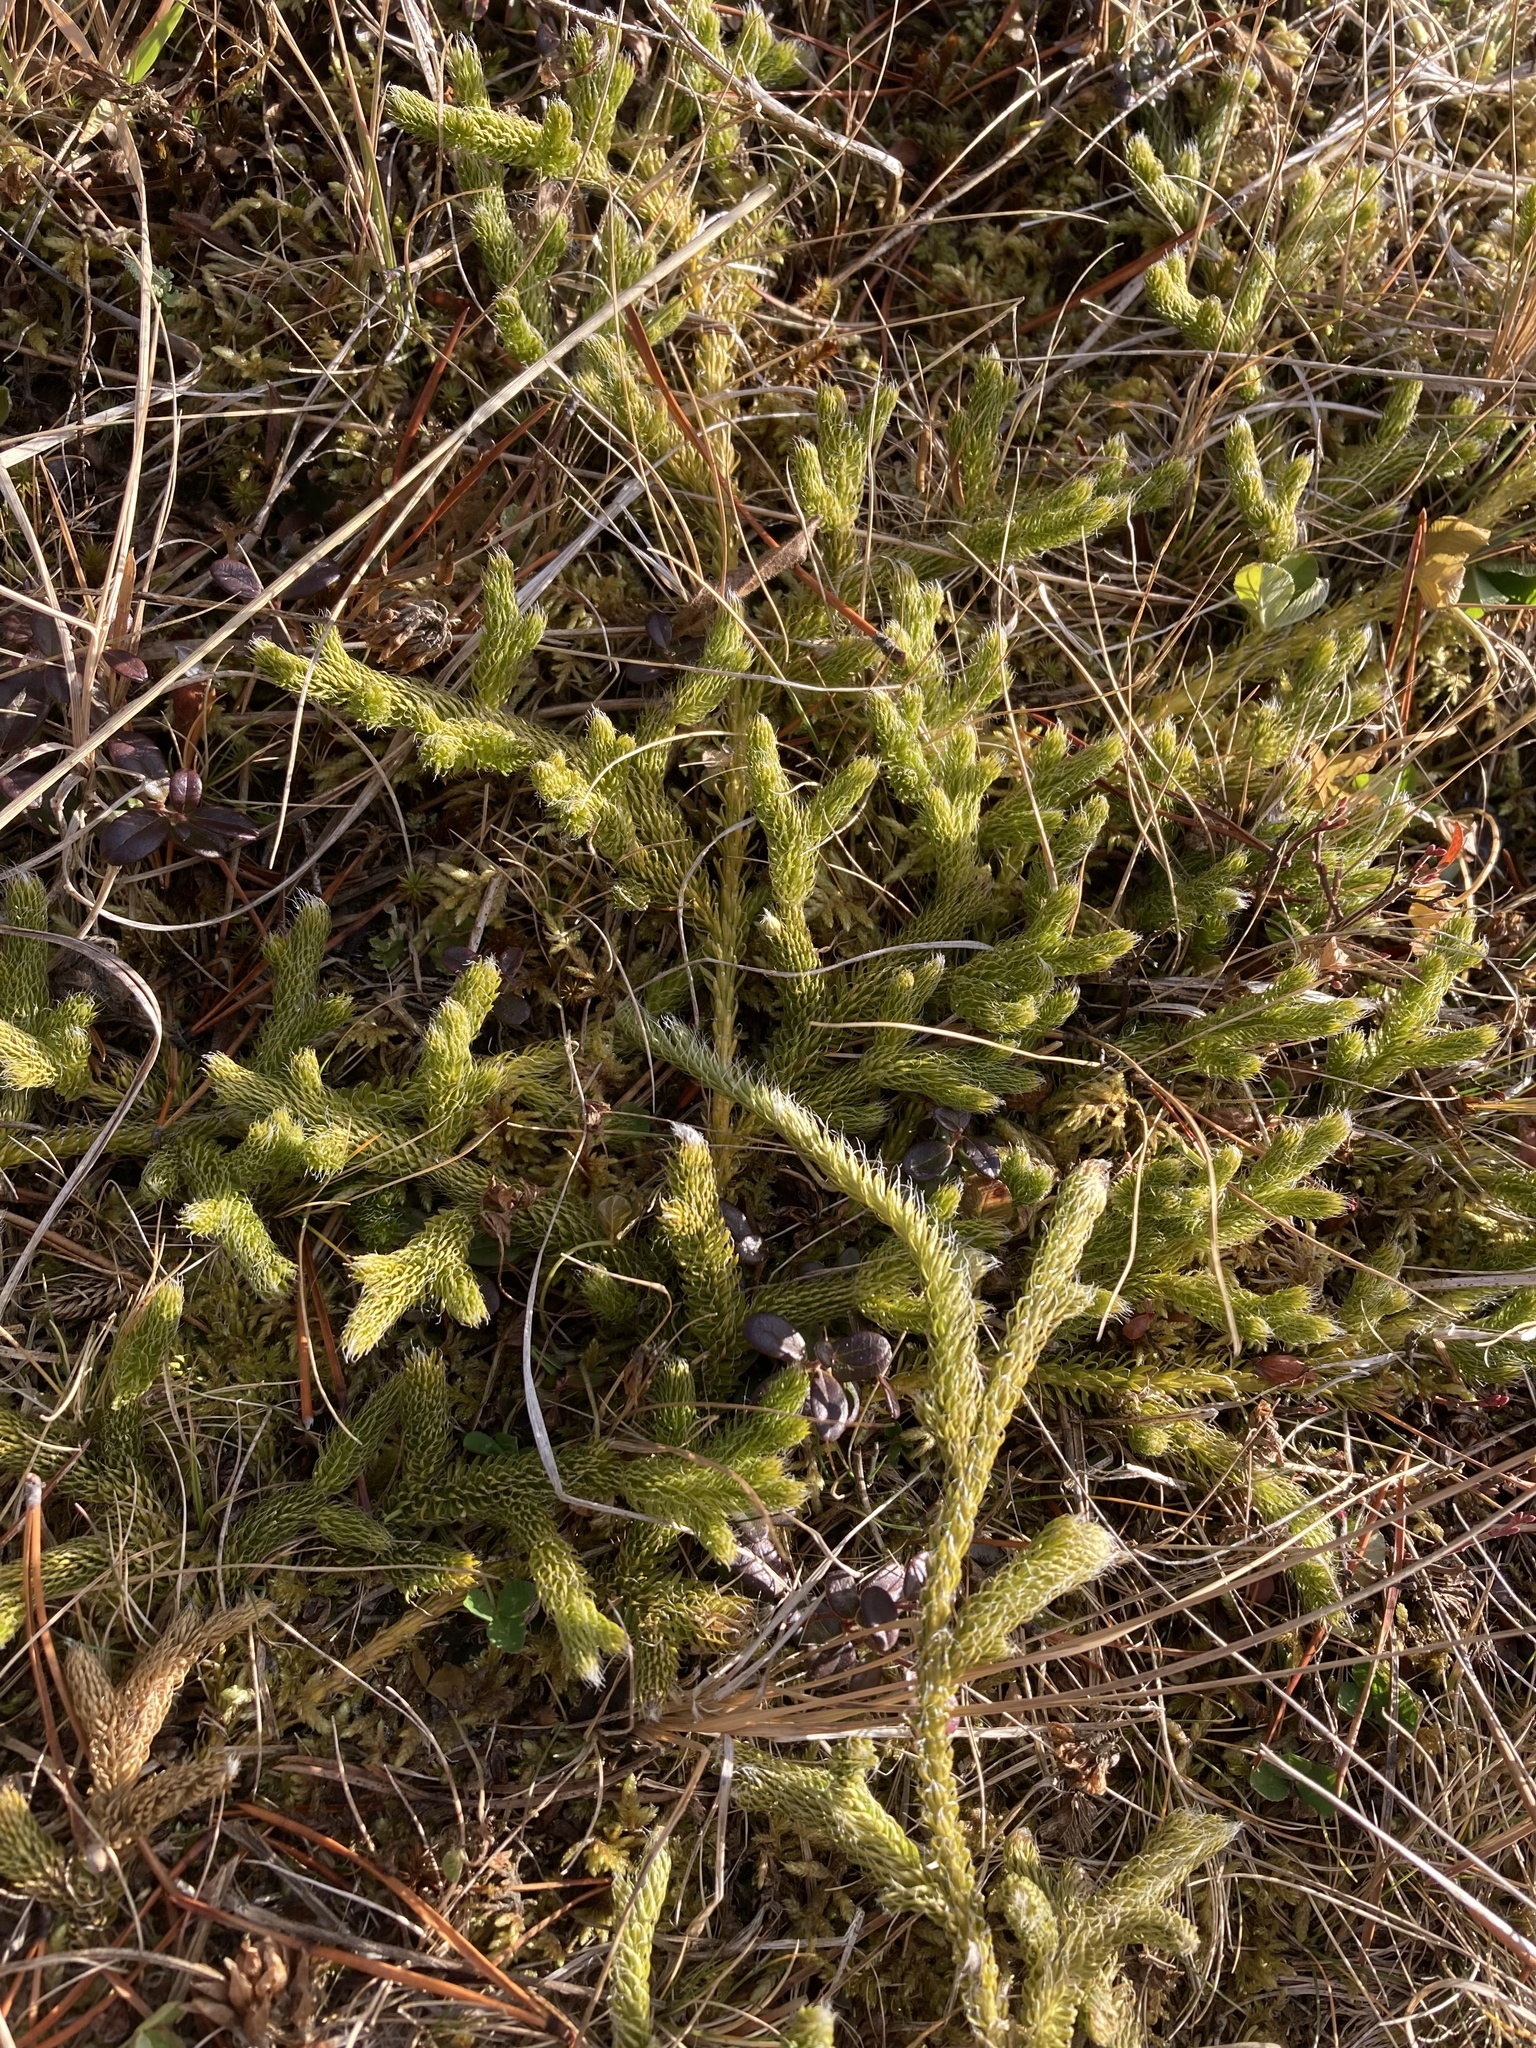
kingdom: Plantae
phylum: Tracheophyta
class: Lycopodiopsida
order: Lycopodiales
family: Lycopodiaceae
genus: Lycopodium
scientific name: Lycopodium lagopus
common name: One-cone clubmoss
